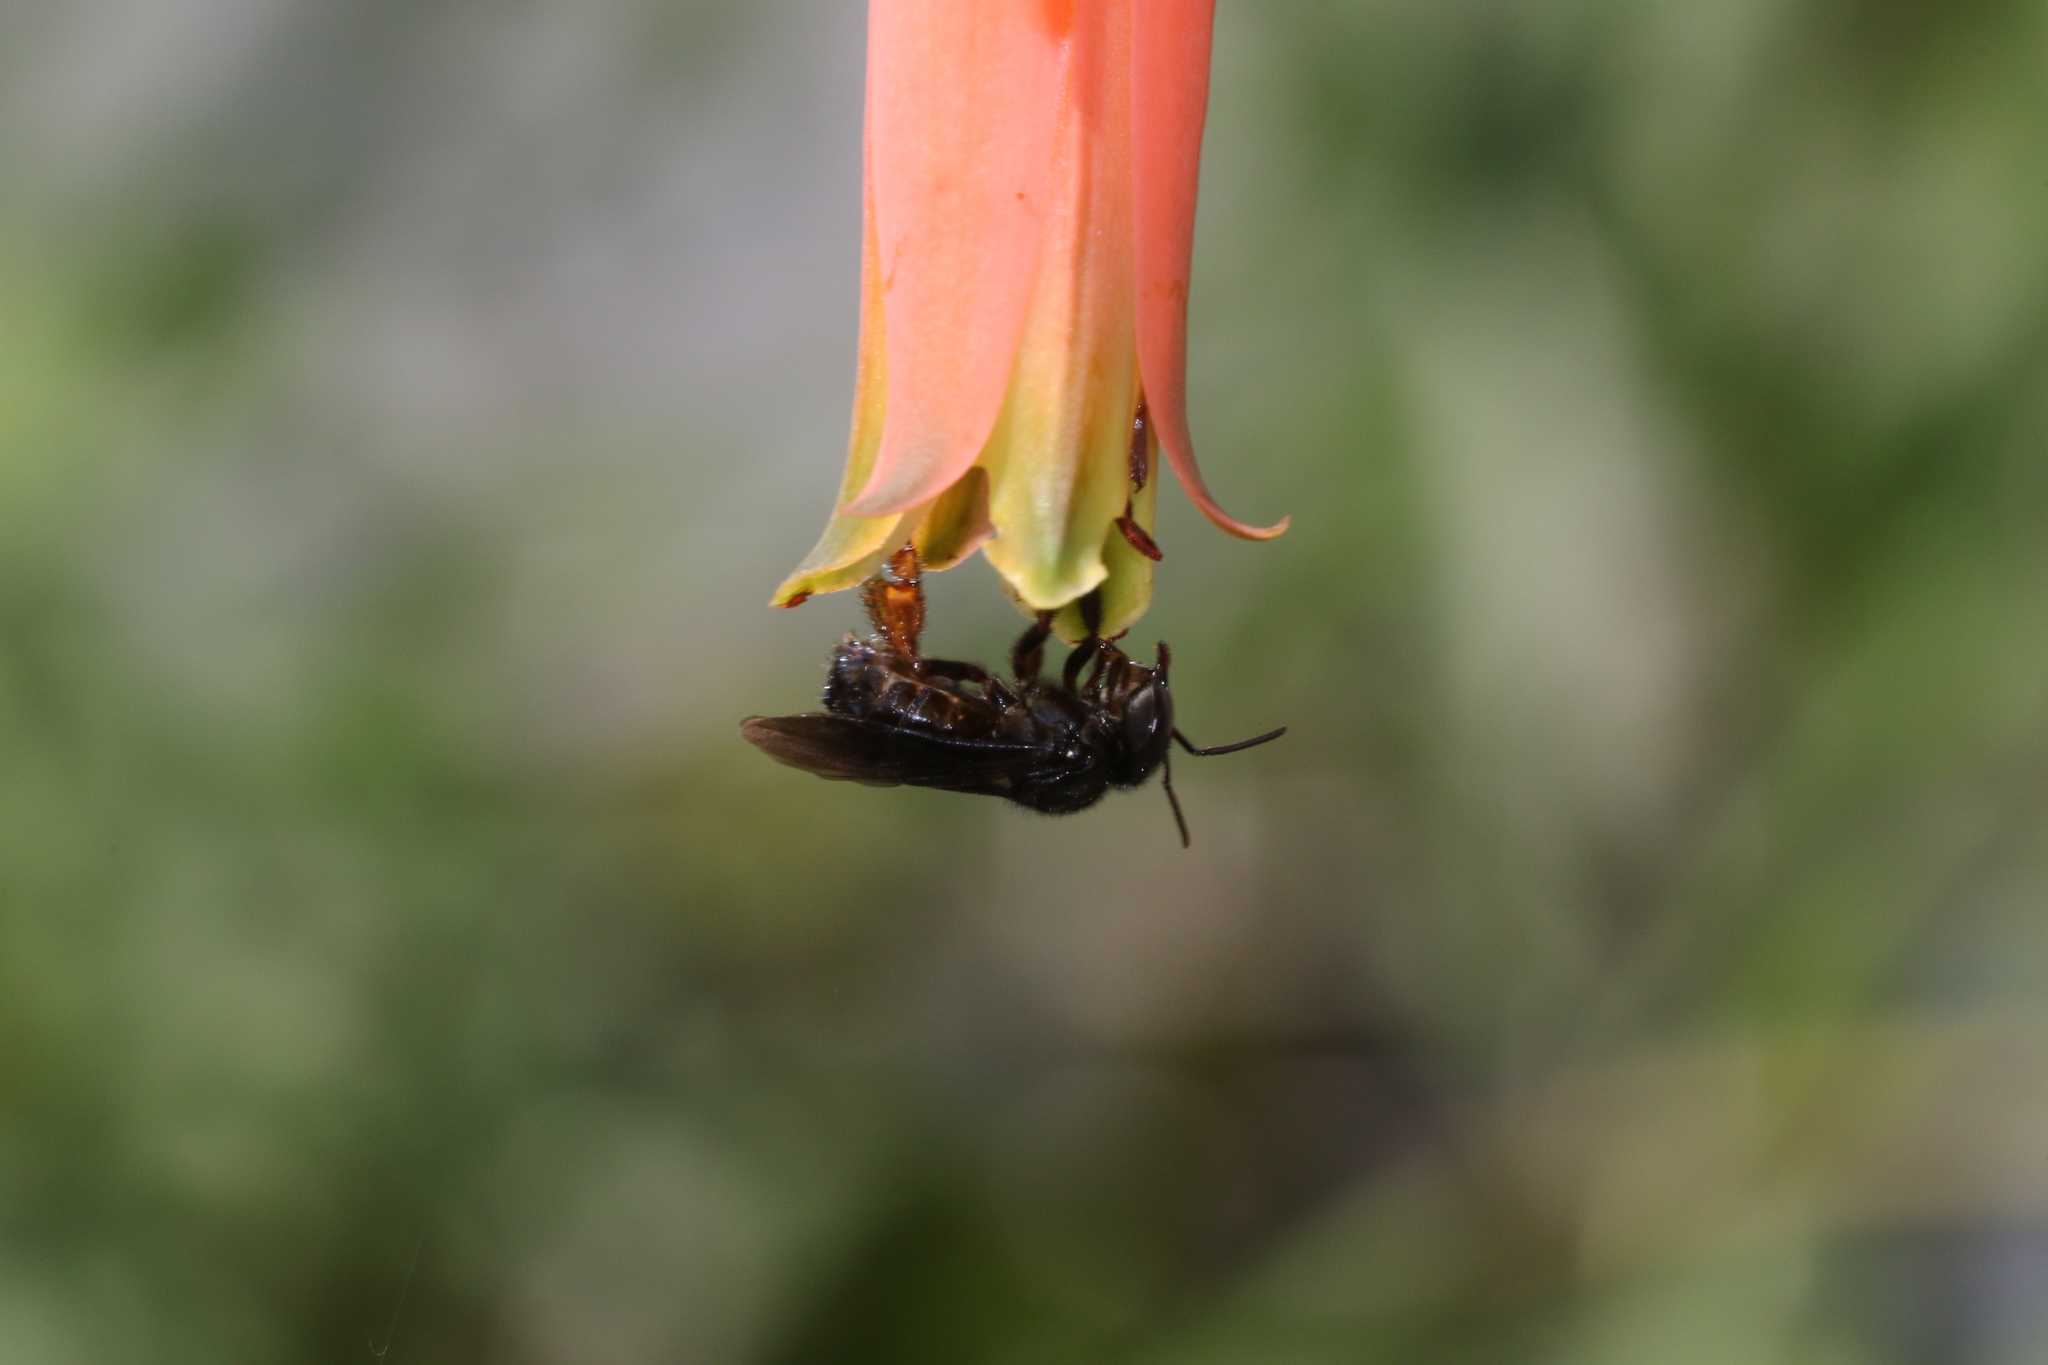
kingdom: Animalia
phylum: Arthropoda
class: Insecta
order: Hymenoptera
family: Apidae
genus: Trigona
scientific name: Trigona spinipes
